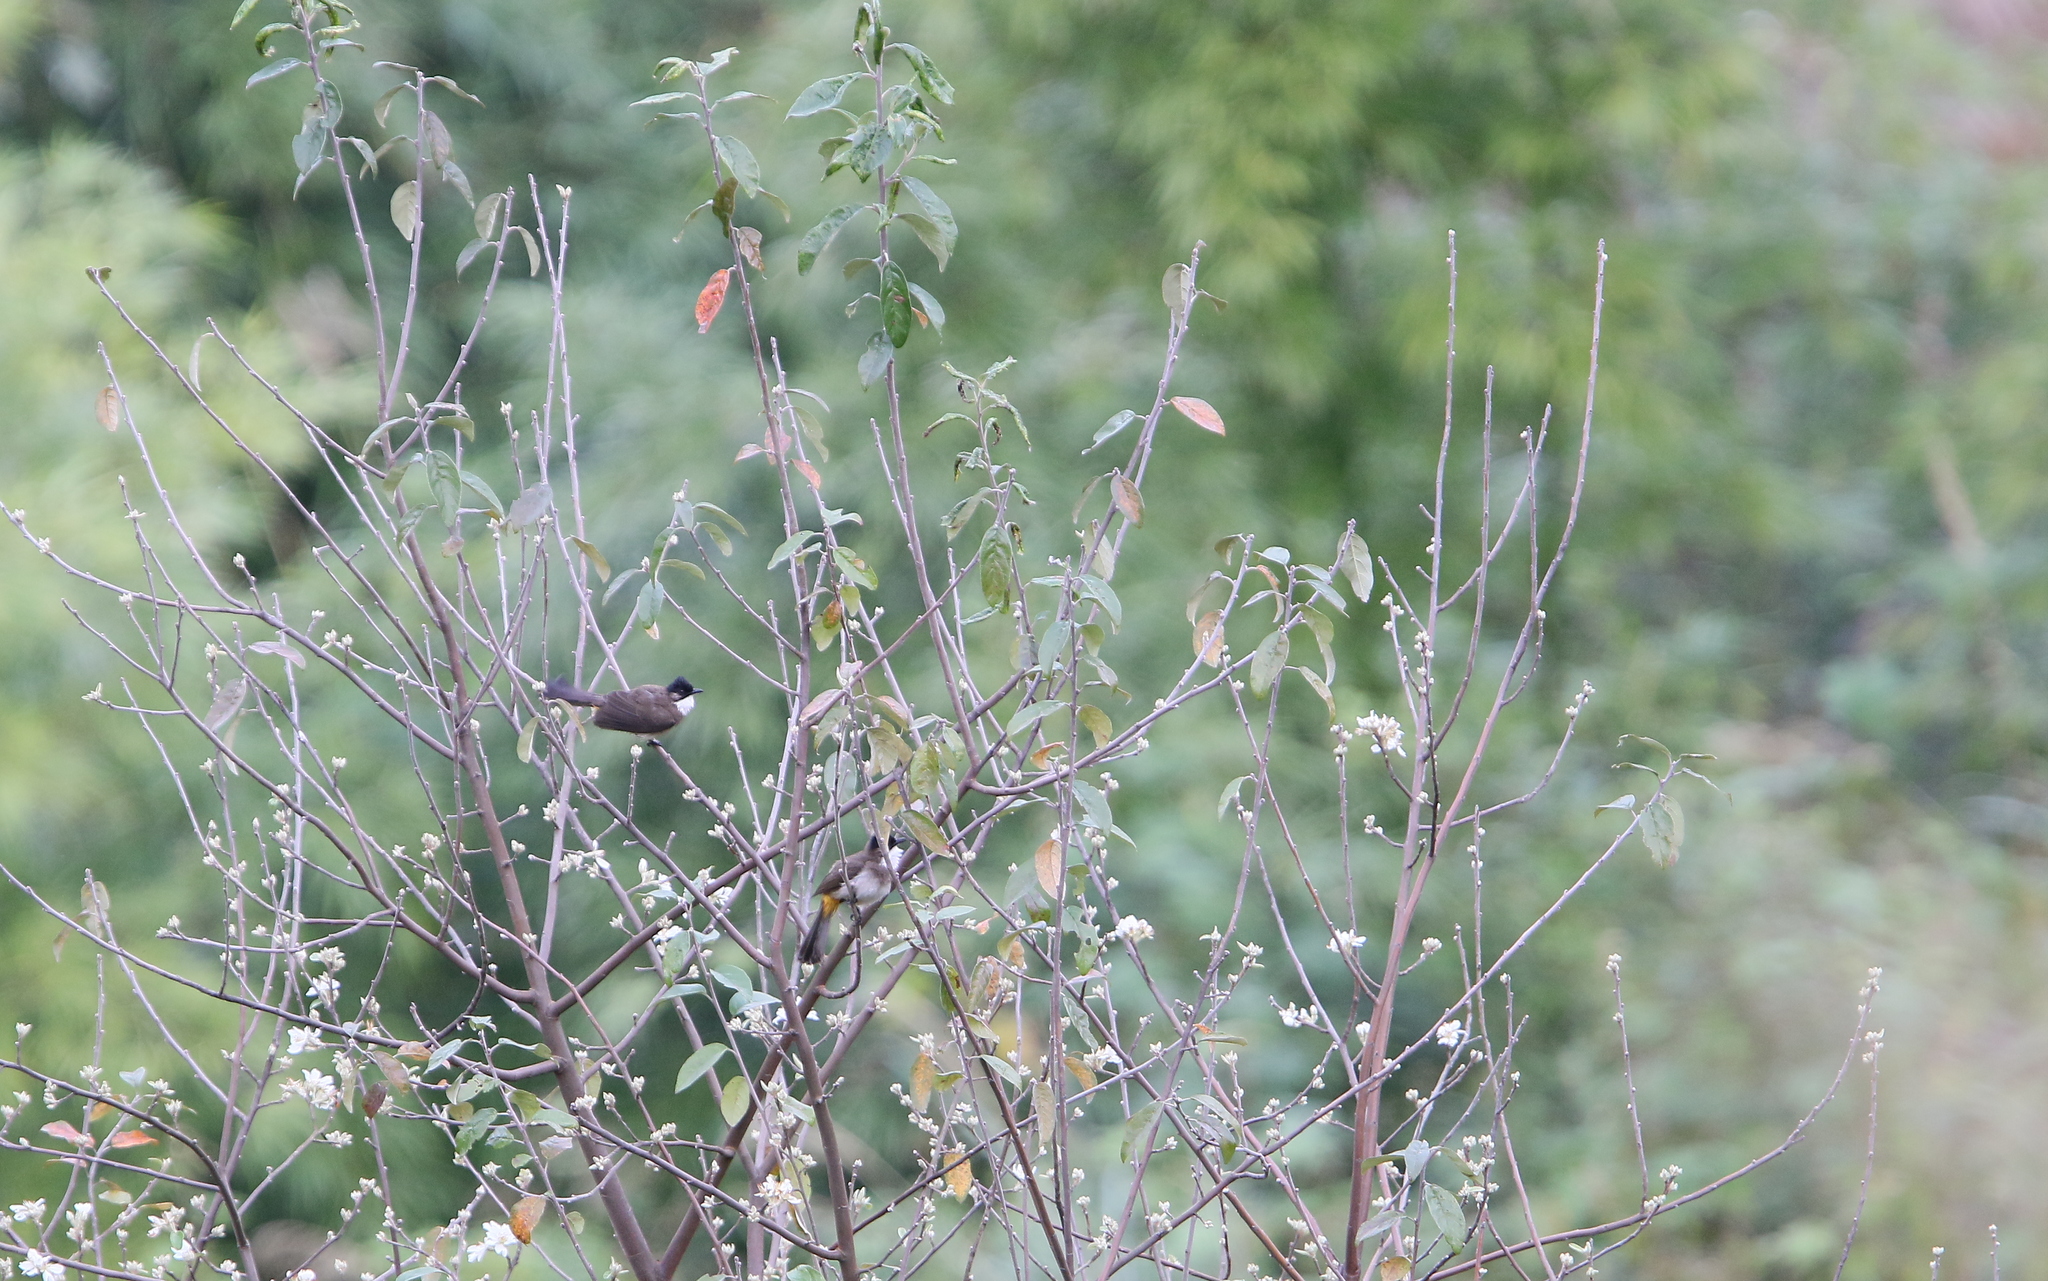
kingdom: Animalia
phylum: Chordata
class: Aves
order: Passeriformes
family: Pycnonotidae
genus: Pycnonotus
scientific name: Pycnonotus xanthorrhous
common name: Brown-breasted bulbul
